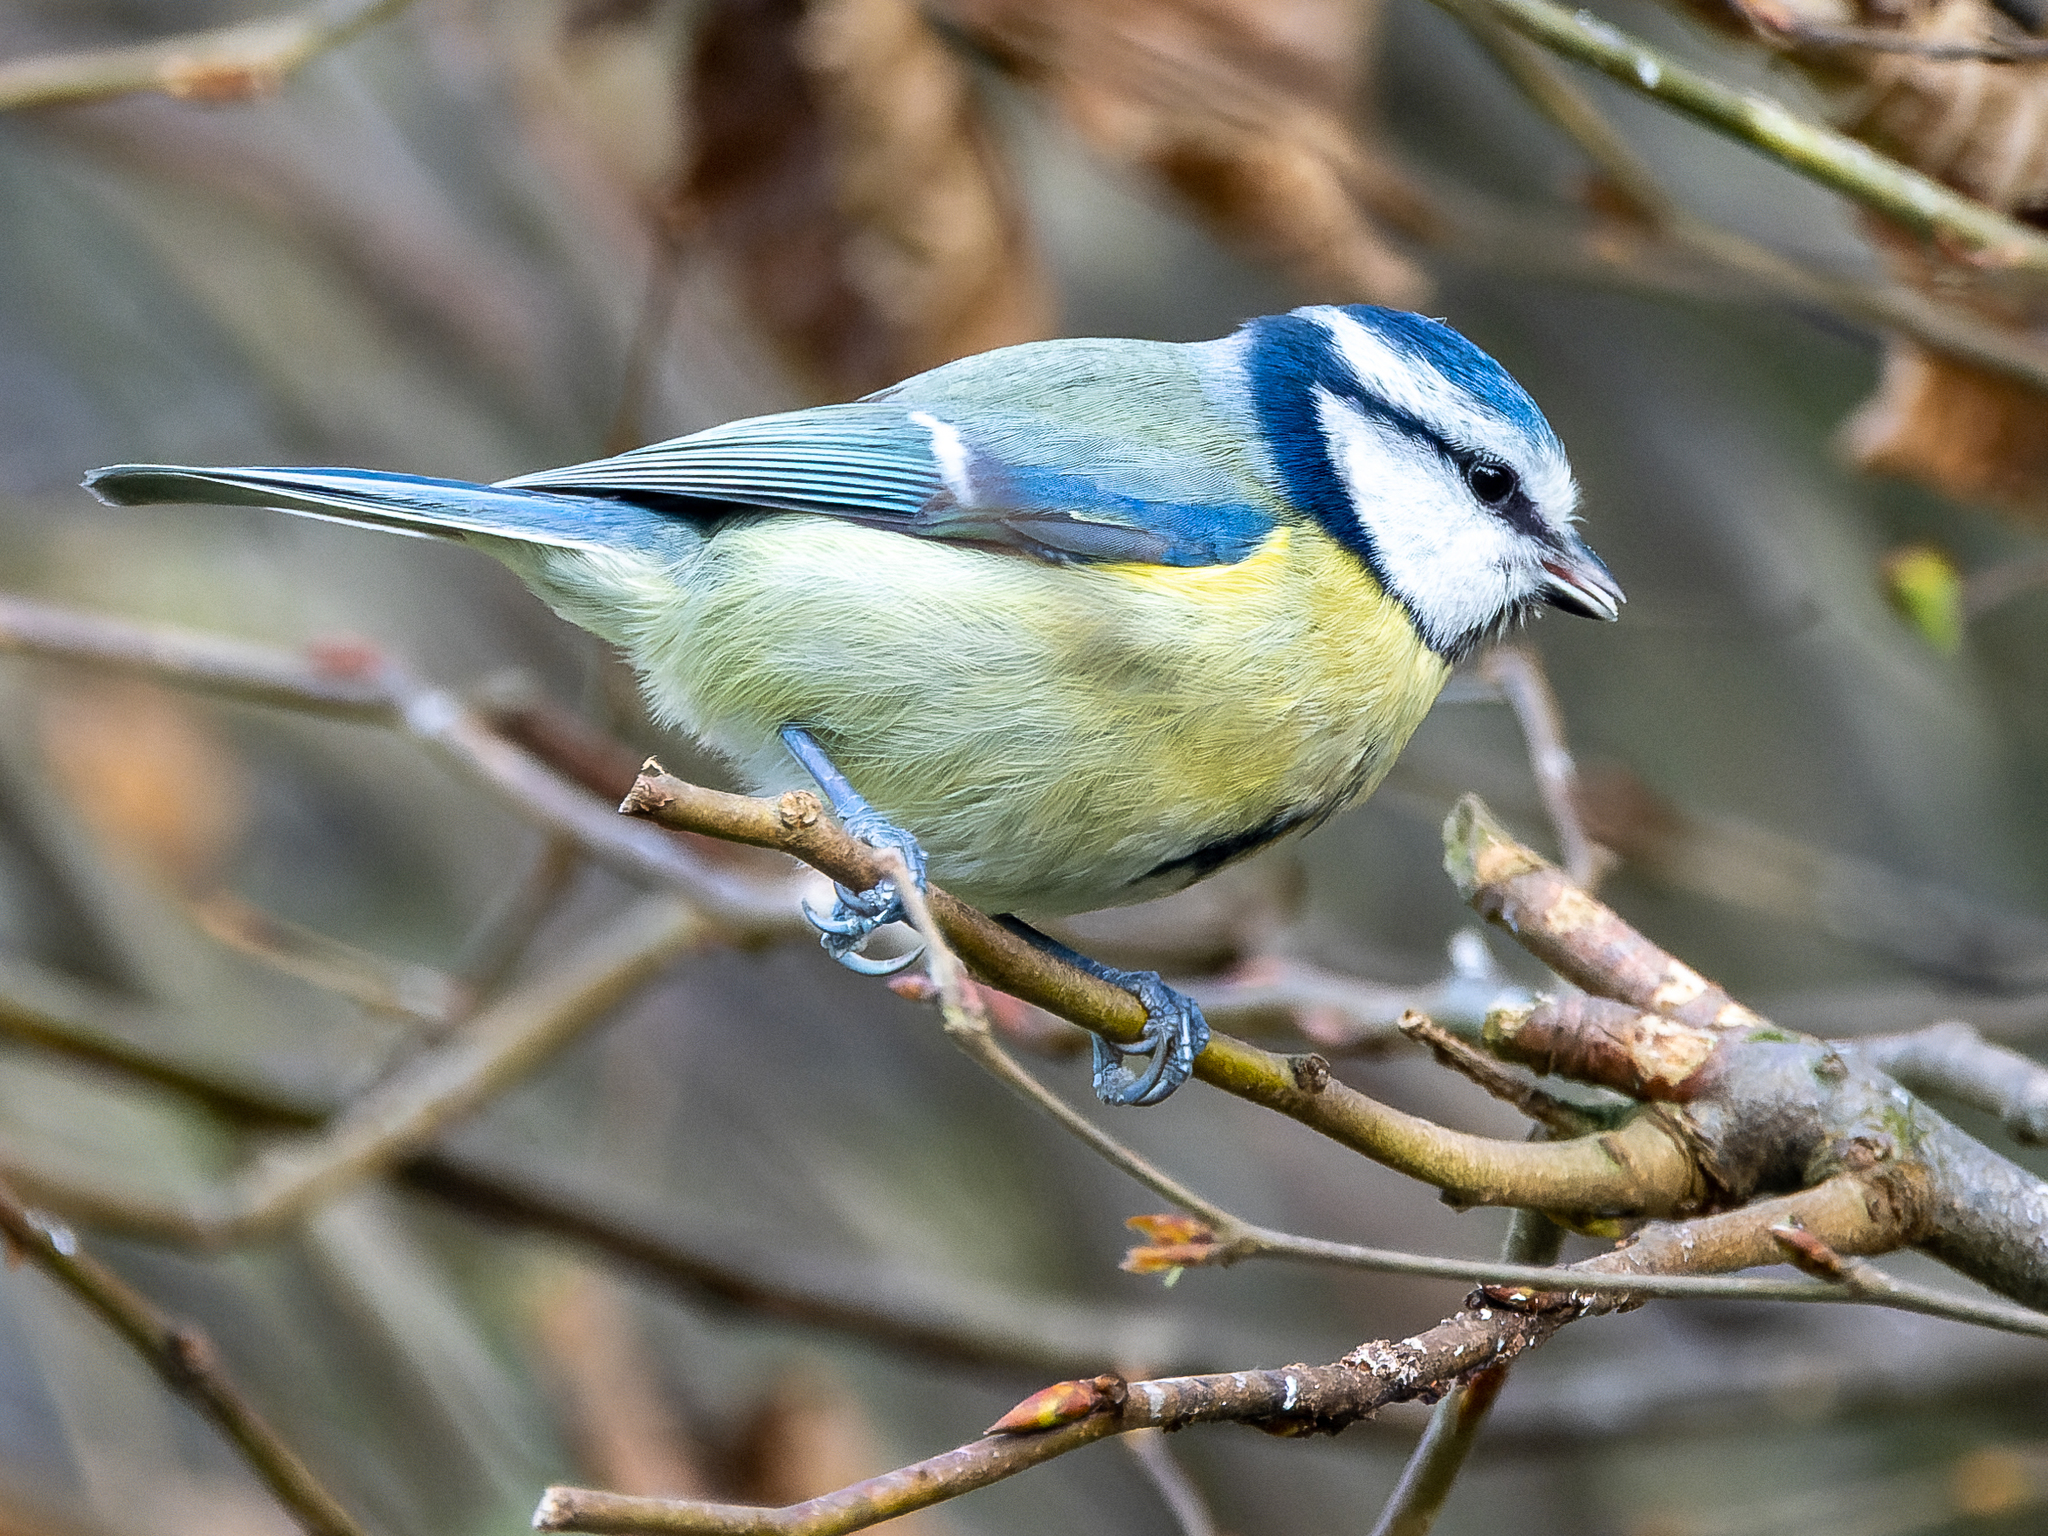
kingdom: Animalia
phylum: Chordata
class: Aves
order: Passeriformes
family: Paridae
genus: Cyanistes
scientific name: Cyanistes caeruleus
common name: Eurasian blue tit
